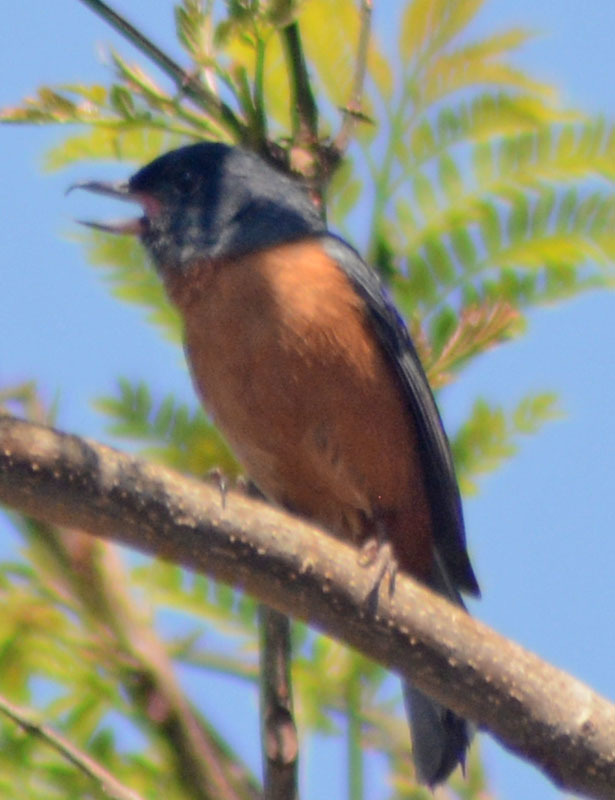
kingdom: Animalia
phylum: Chordata
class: Aves
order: Passeriformes
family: Thraupidae
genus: Diglossa
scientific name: Diglossa baritula
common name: Cinnamon-bellied flowerpiercer
